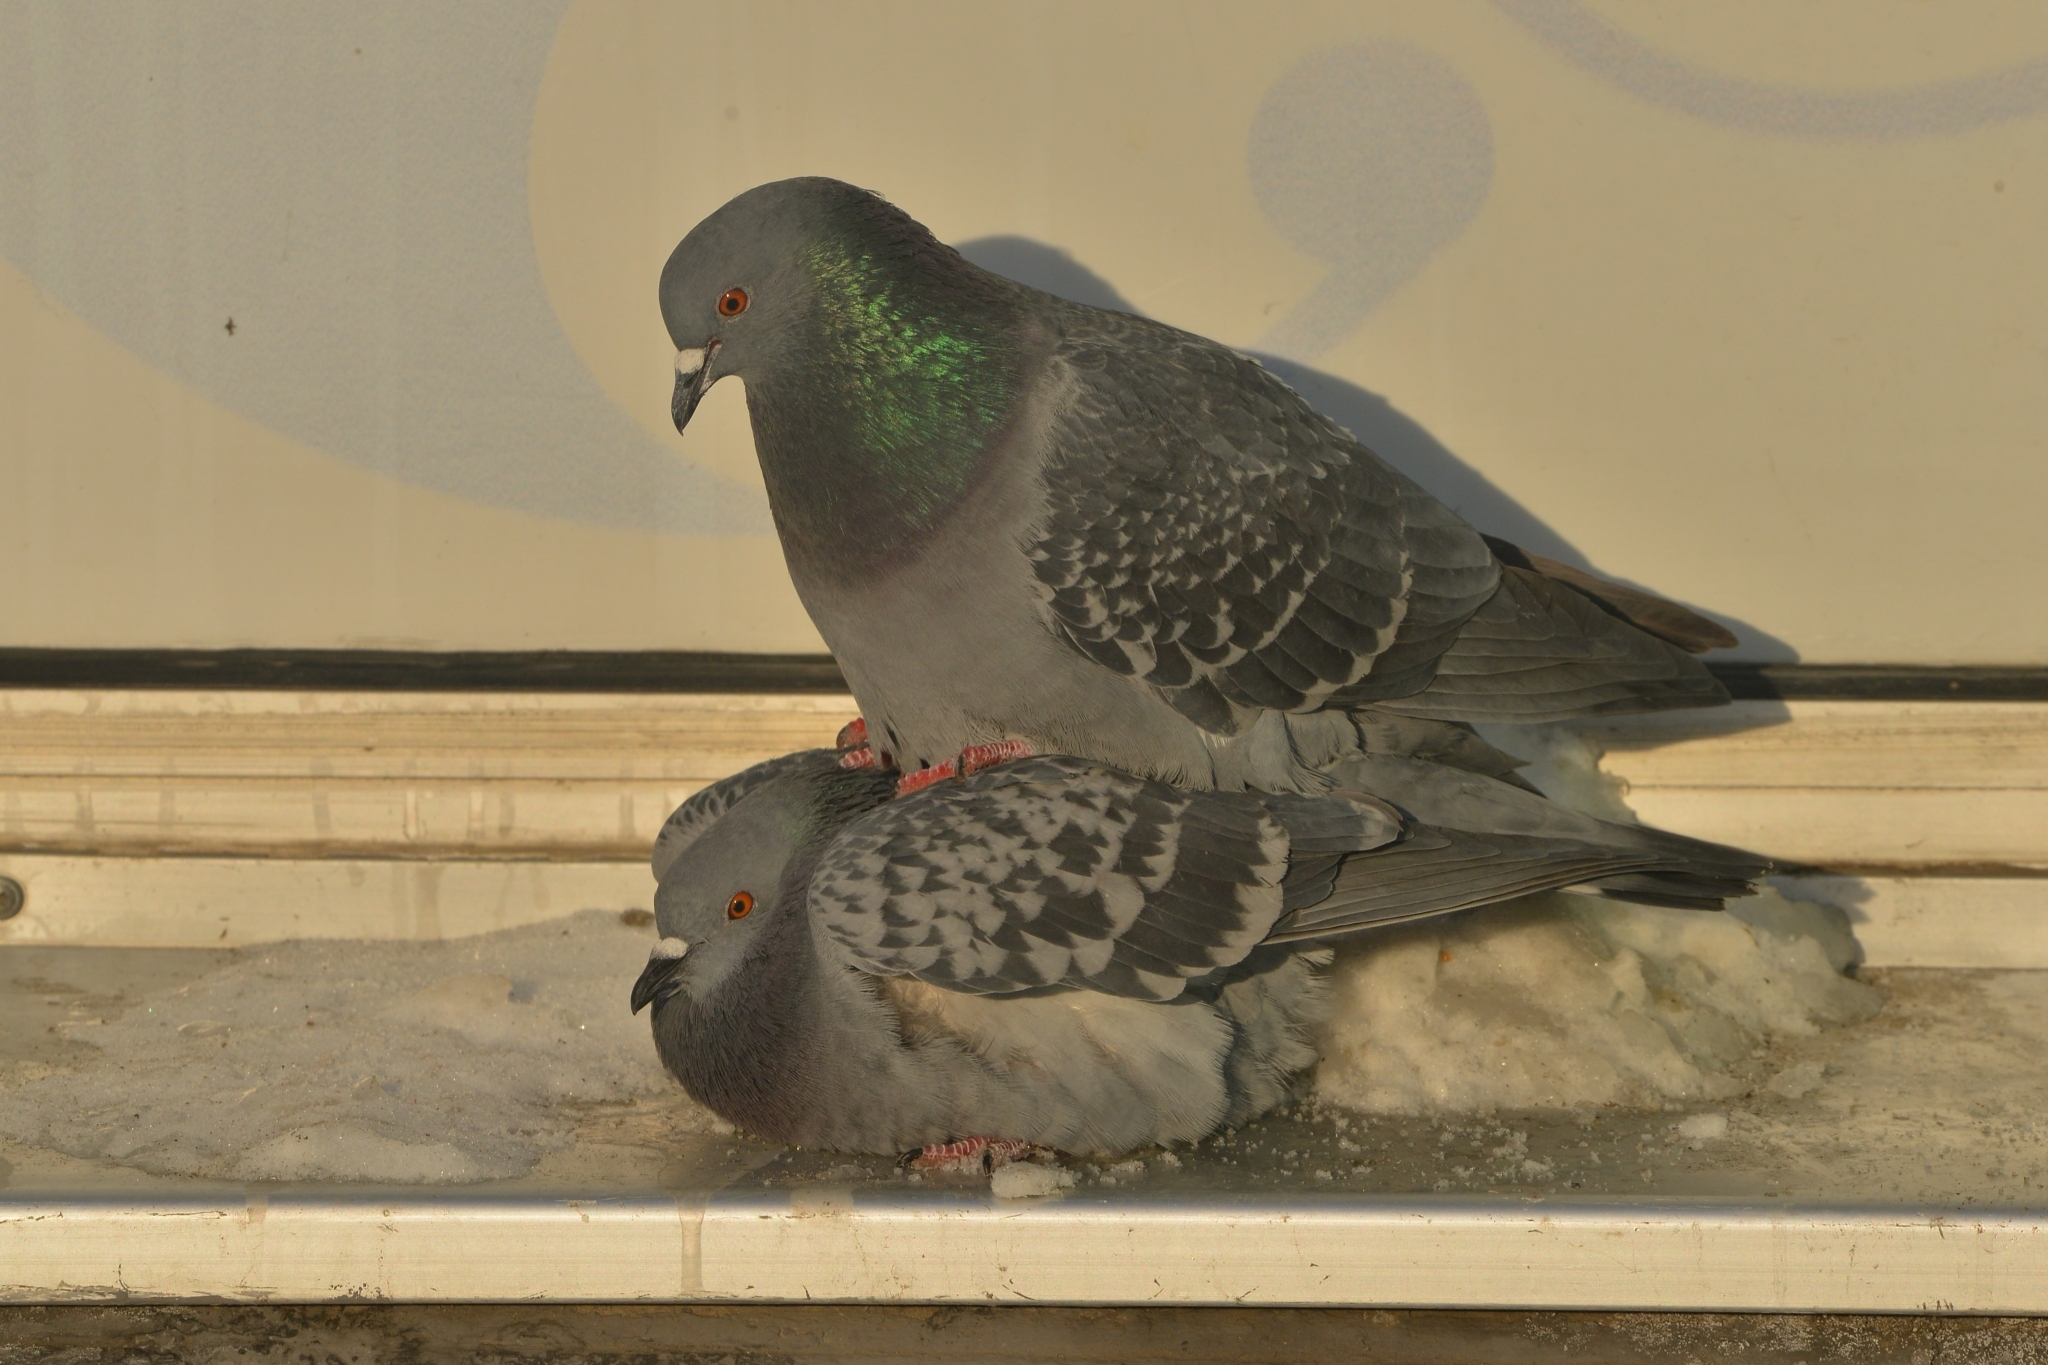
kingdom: Animalia
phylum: Chordata
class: Aves
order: Columbiformes
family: Columbidae
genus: Columba
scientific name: Columba livia
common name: Rock pigeon
